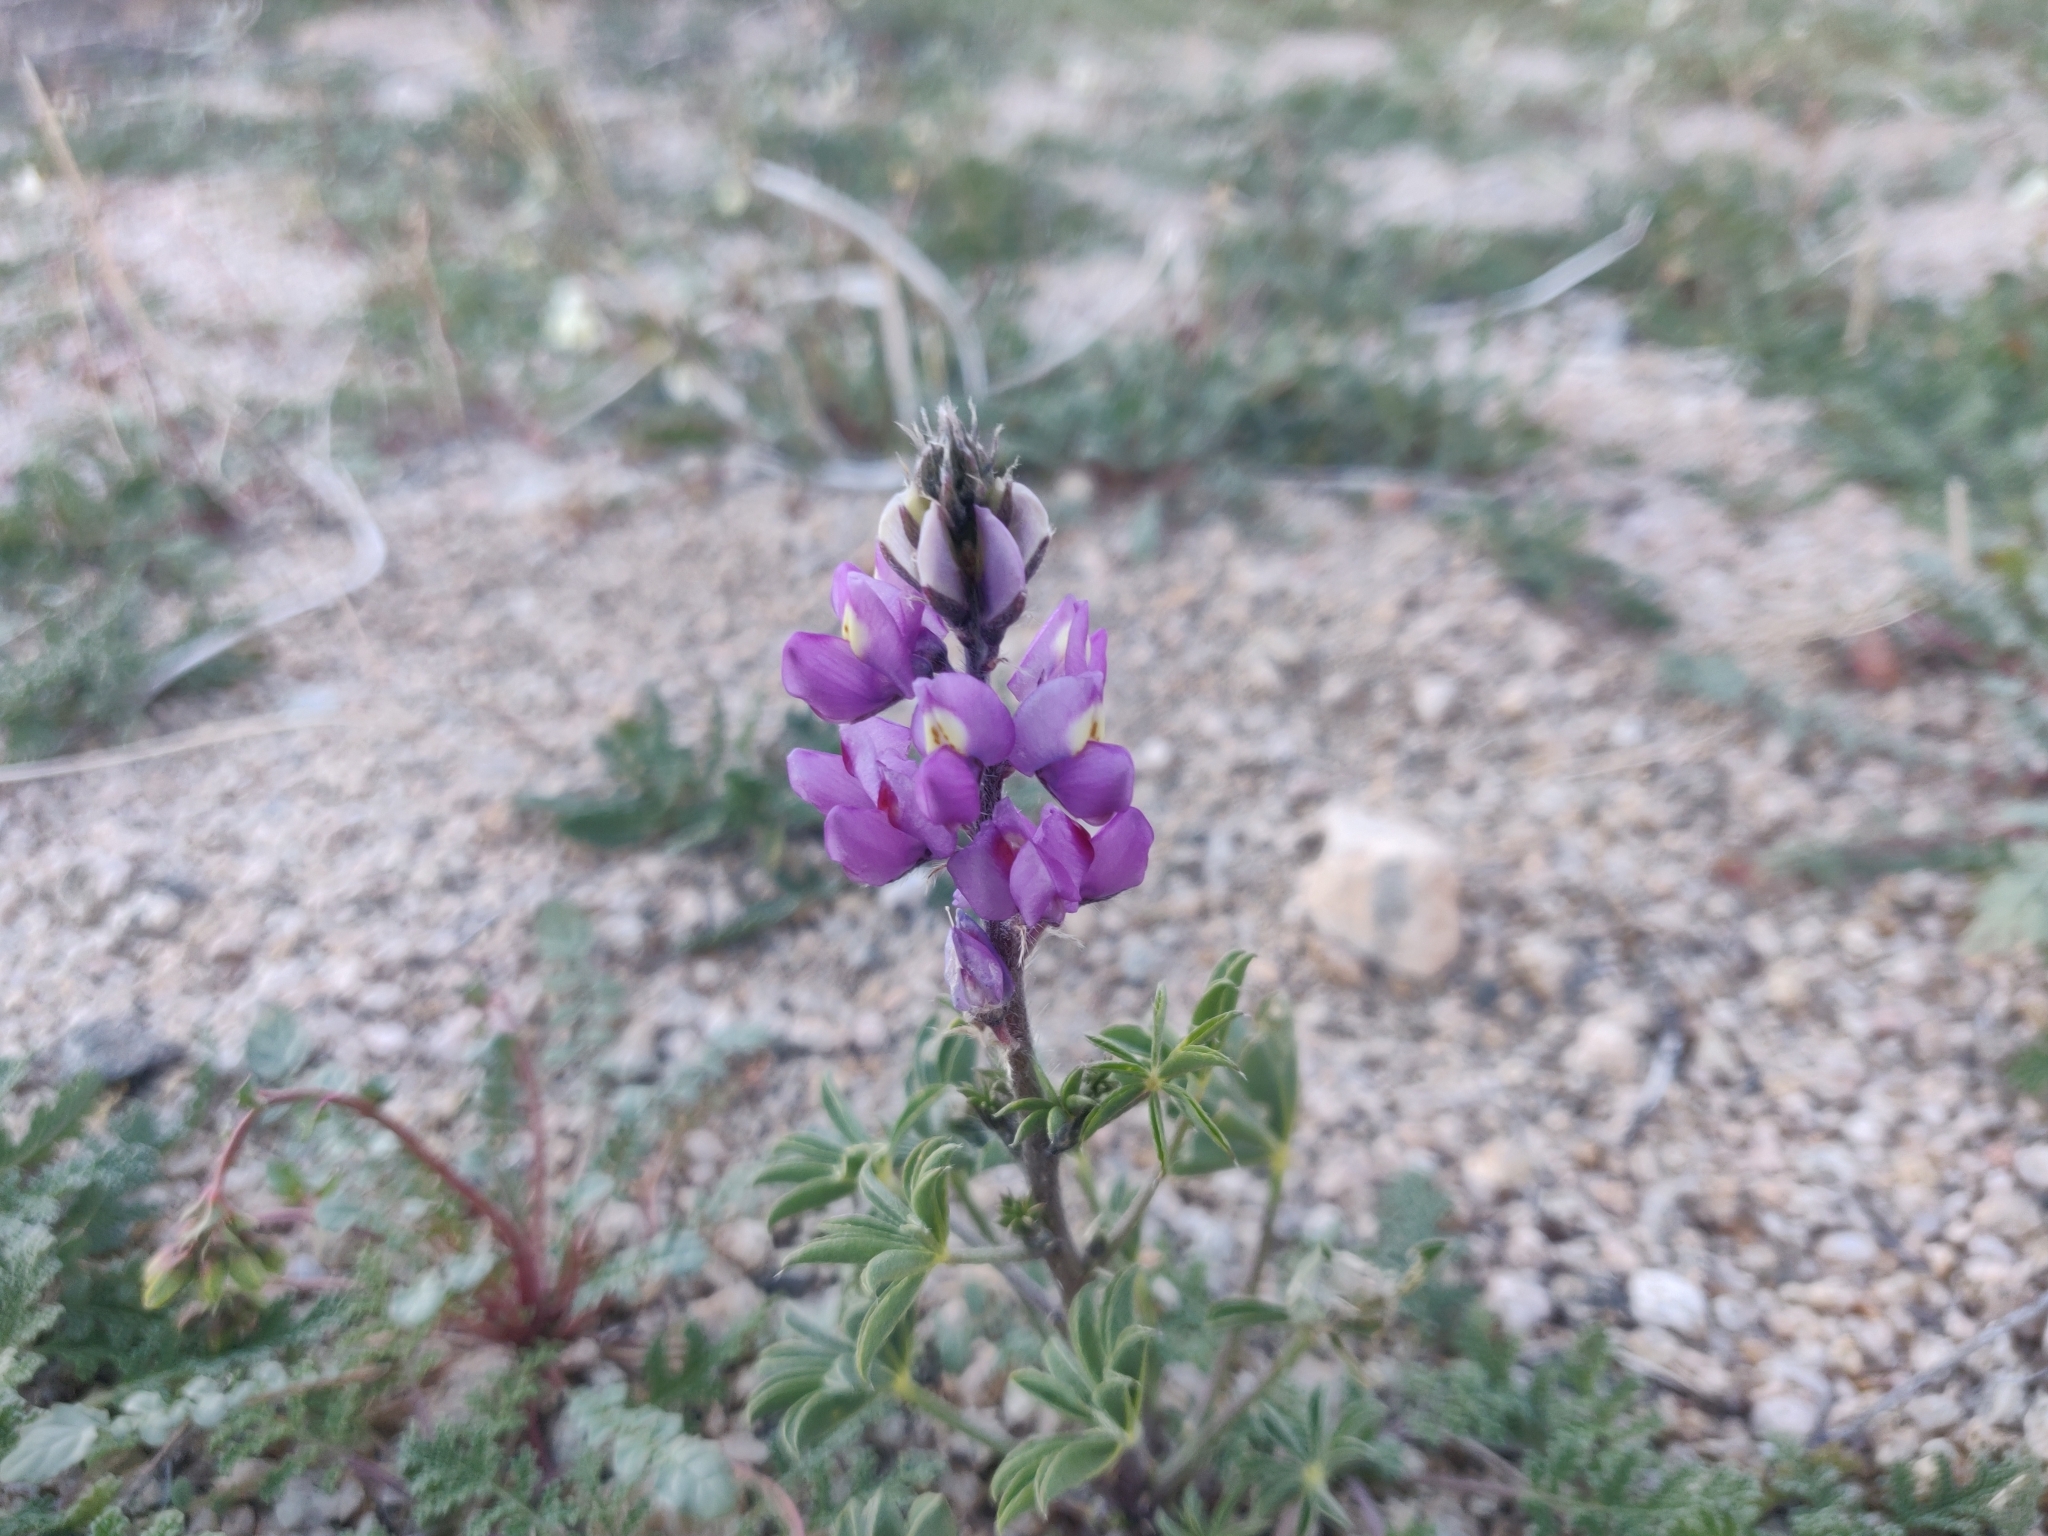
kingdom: Plantae
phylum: Tracheophyta
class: Magnoliopsida
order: Fabales
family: Fabaceae
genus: Lupinus
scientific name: Lupinus arizonicus
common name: Arizona lupine
